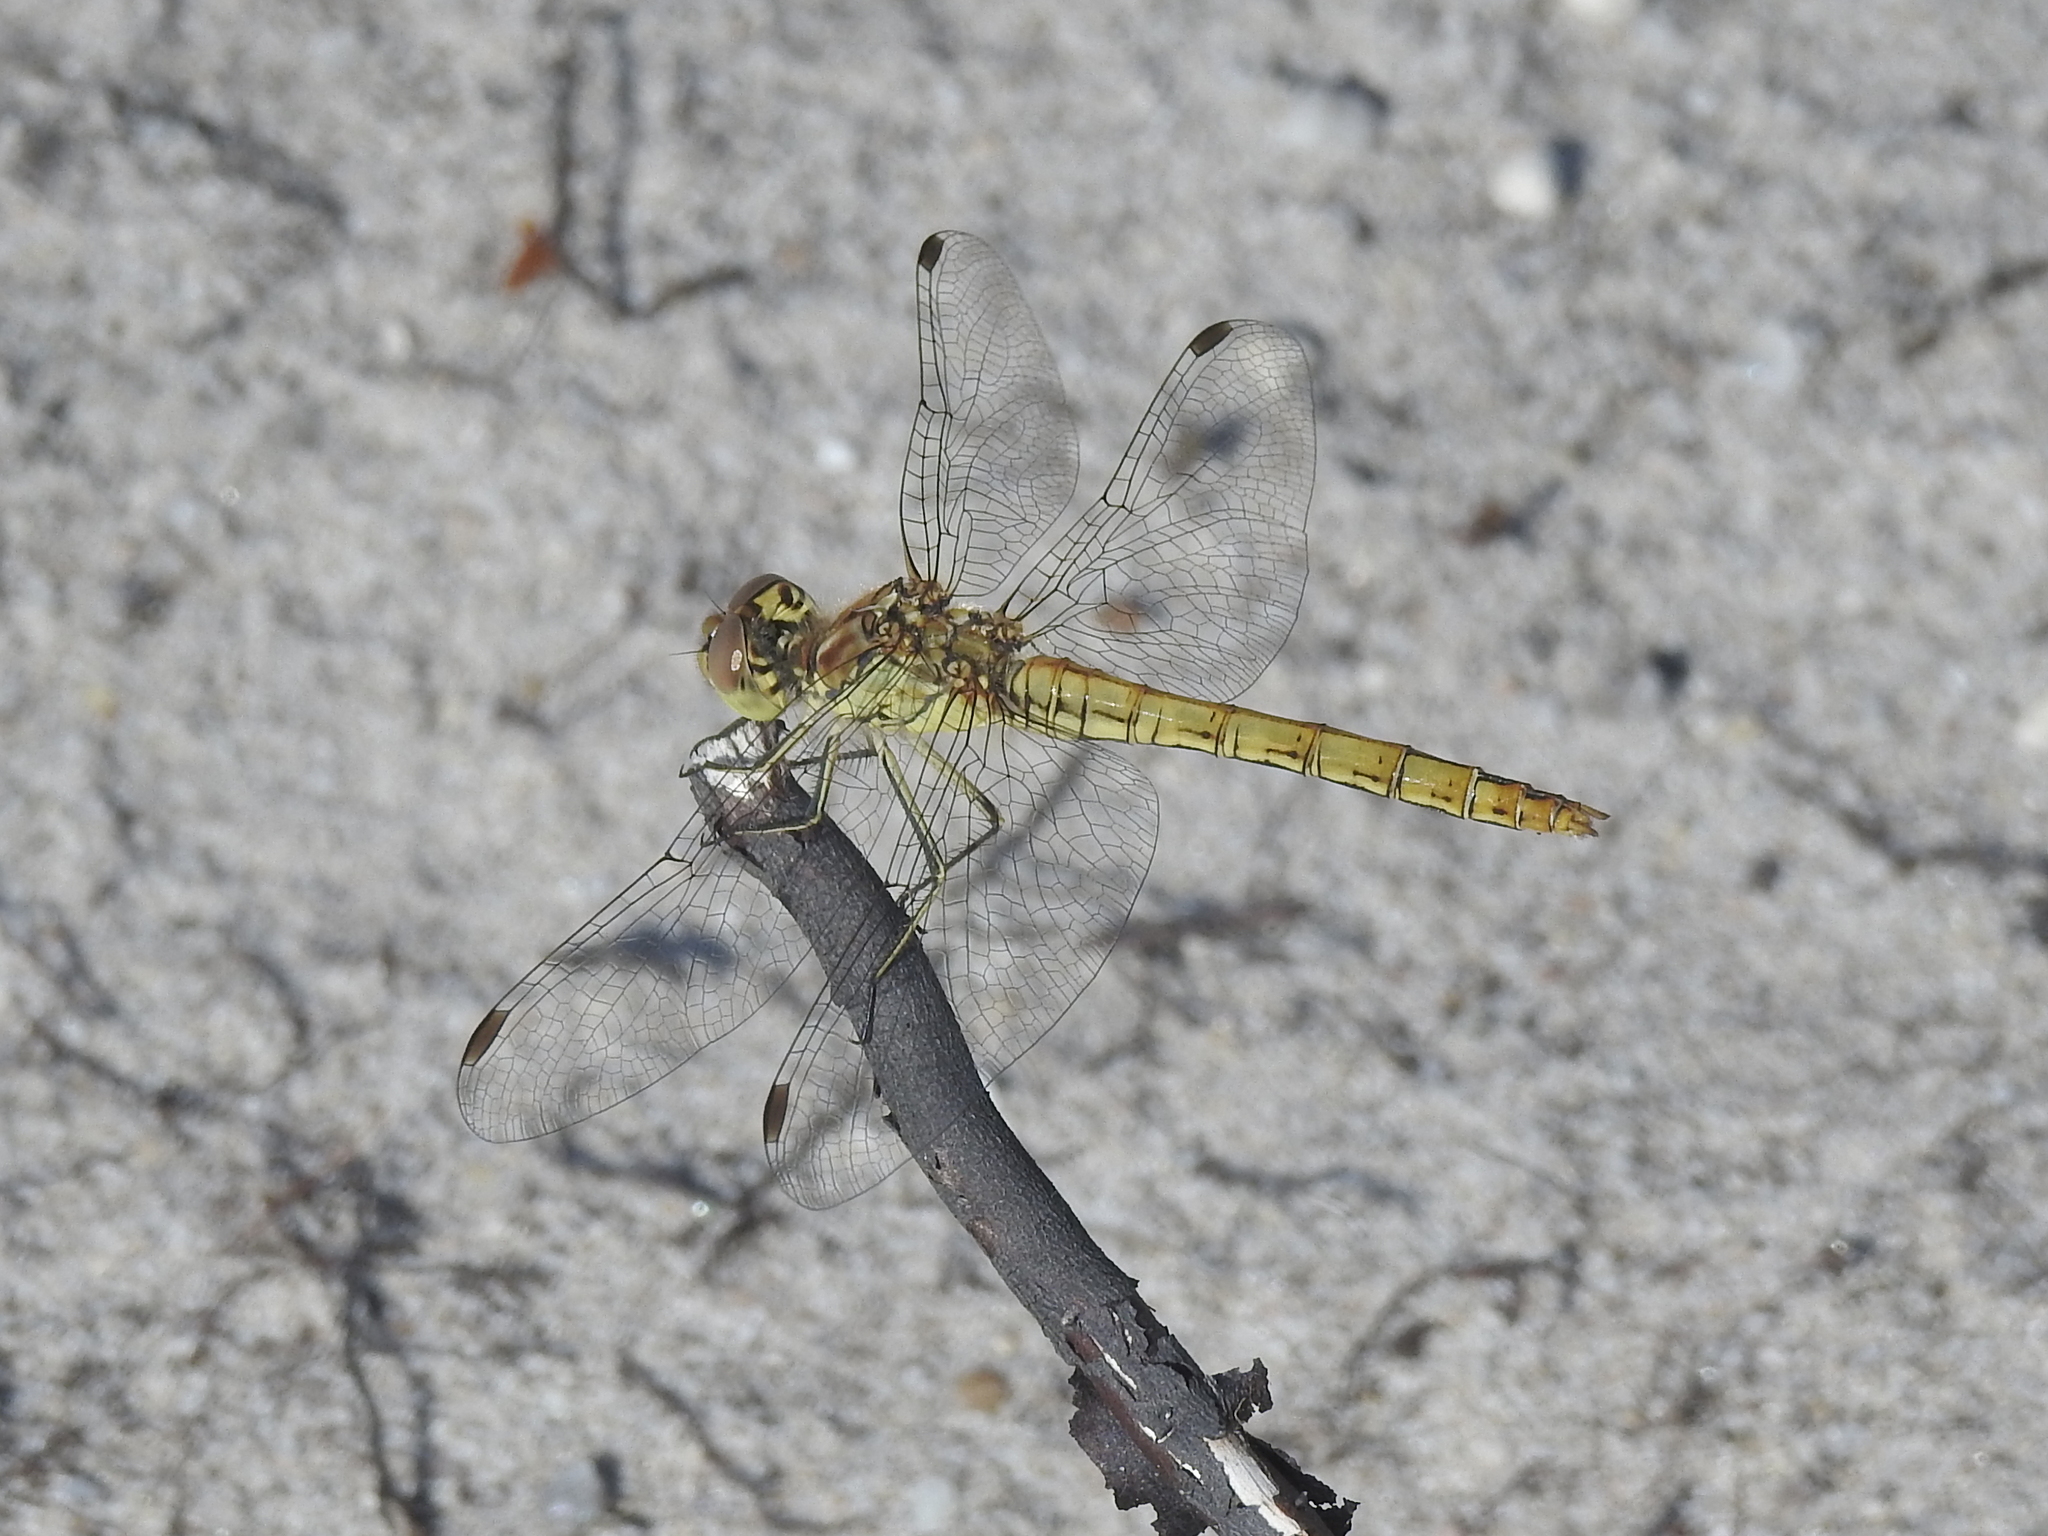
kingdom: Animalia
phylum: Arthropoda
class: Insecta
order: Odonata
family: Libellulidae
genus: Sympetrum
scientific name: Sympetrum vulgatum
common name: Vagrant darter
